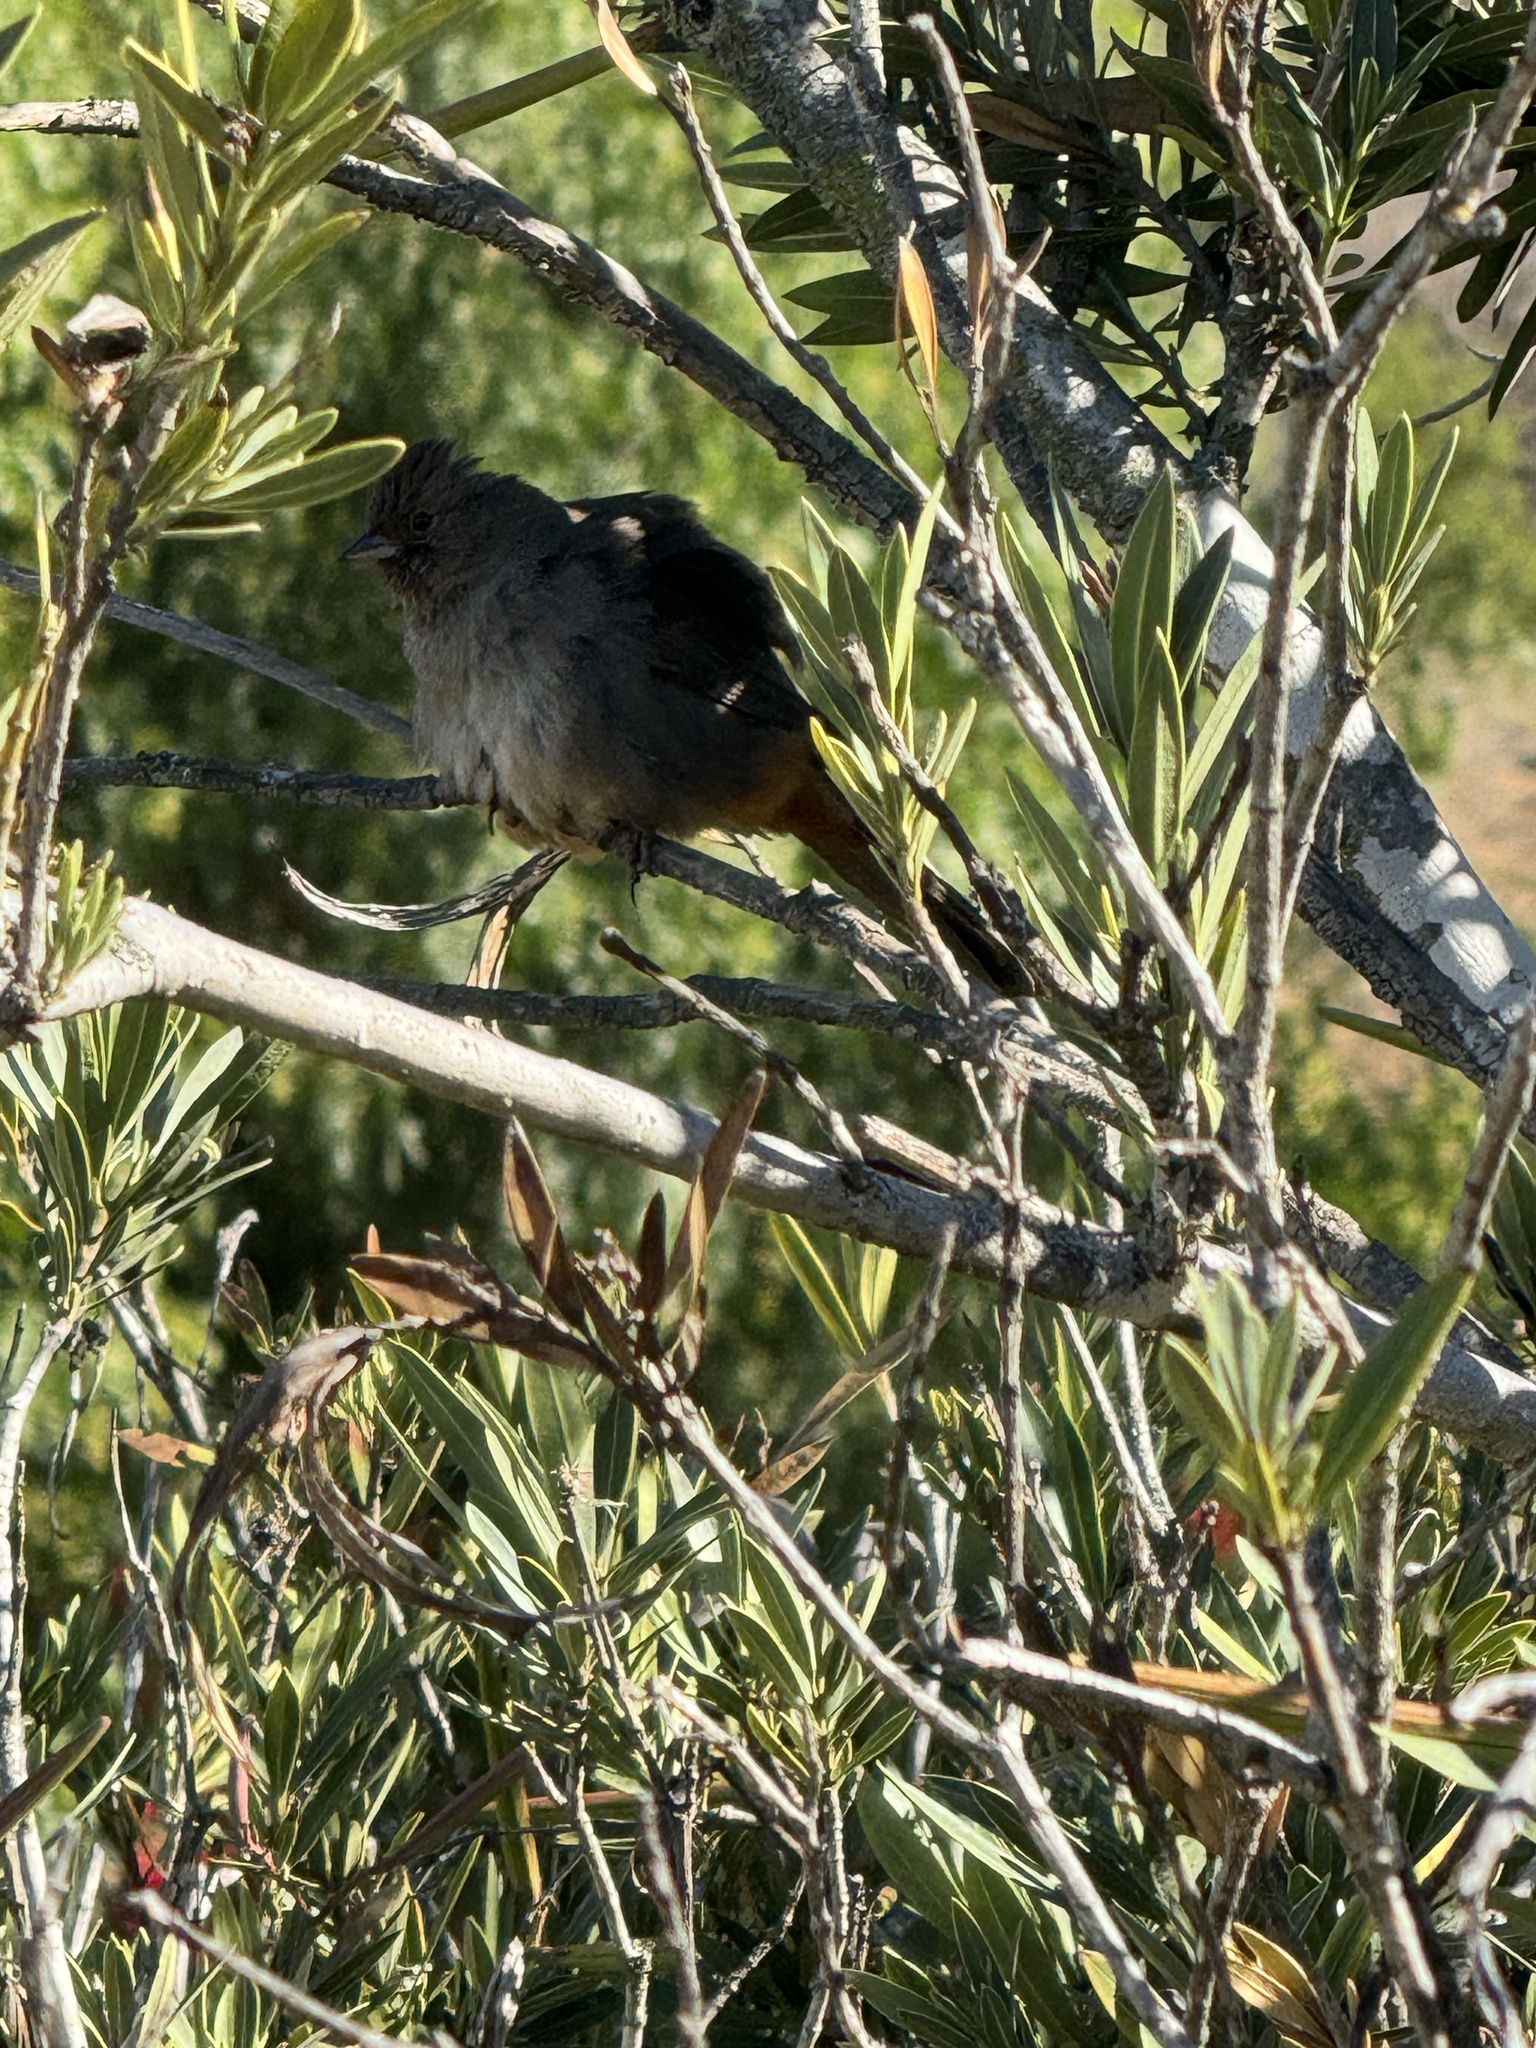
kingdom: Animalia
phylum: Chordata
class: Aves
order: Passeriformes
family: Passerellidae
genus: Melozone
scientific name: Melozone crissalis
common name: California towhee
